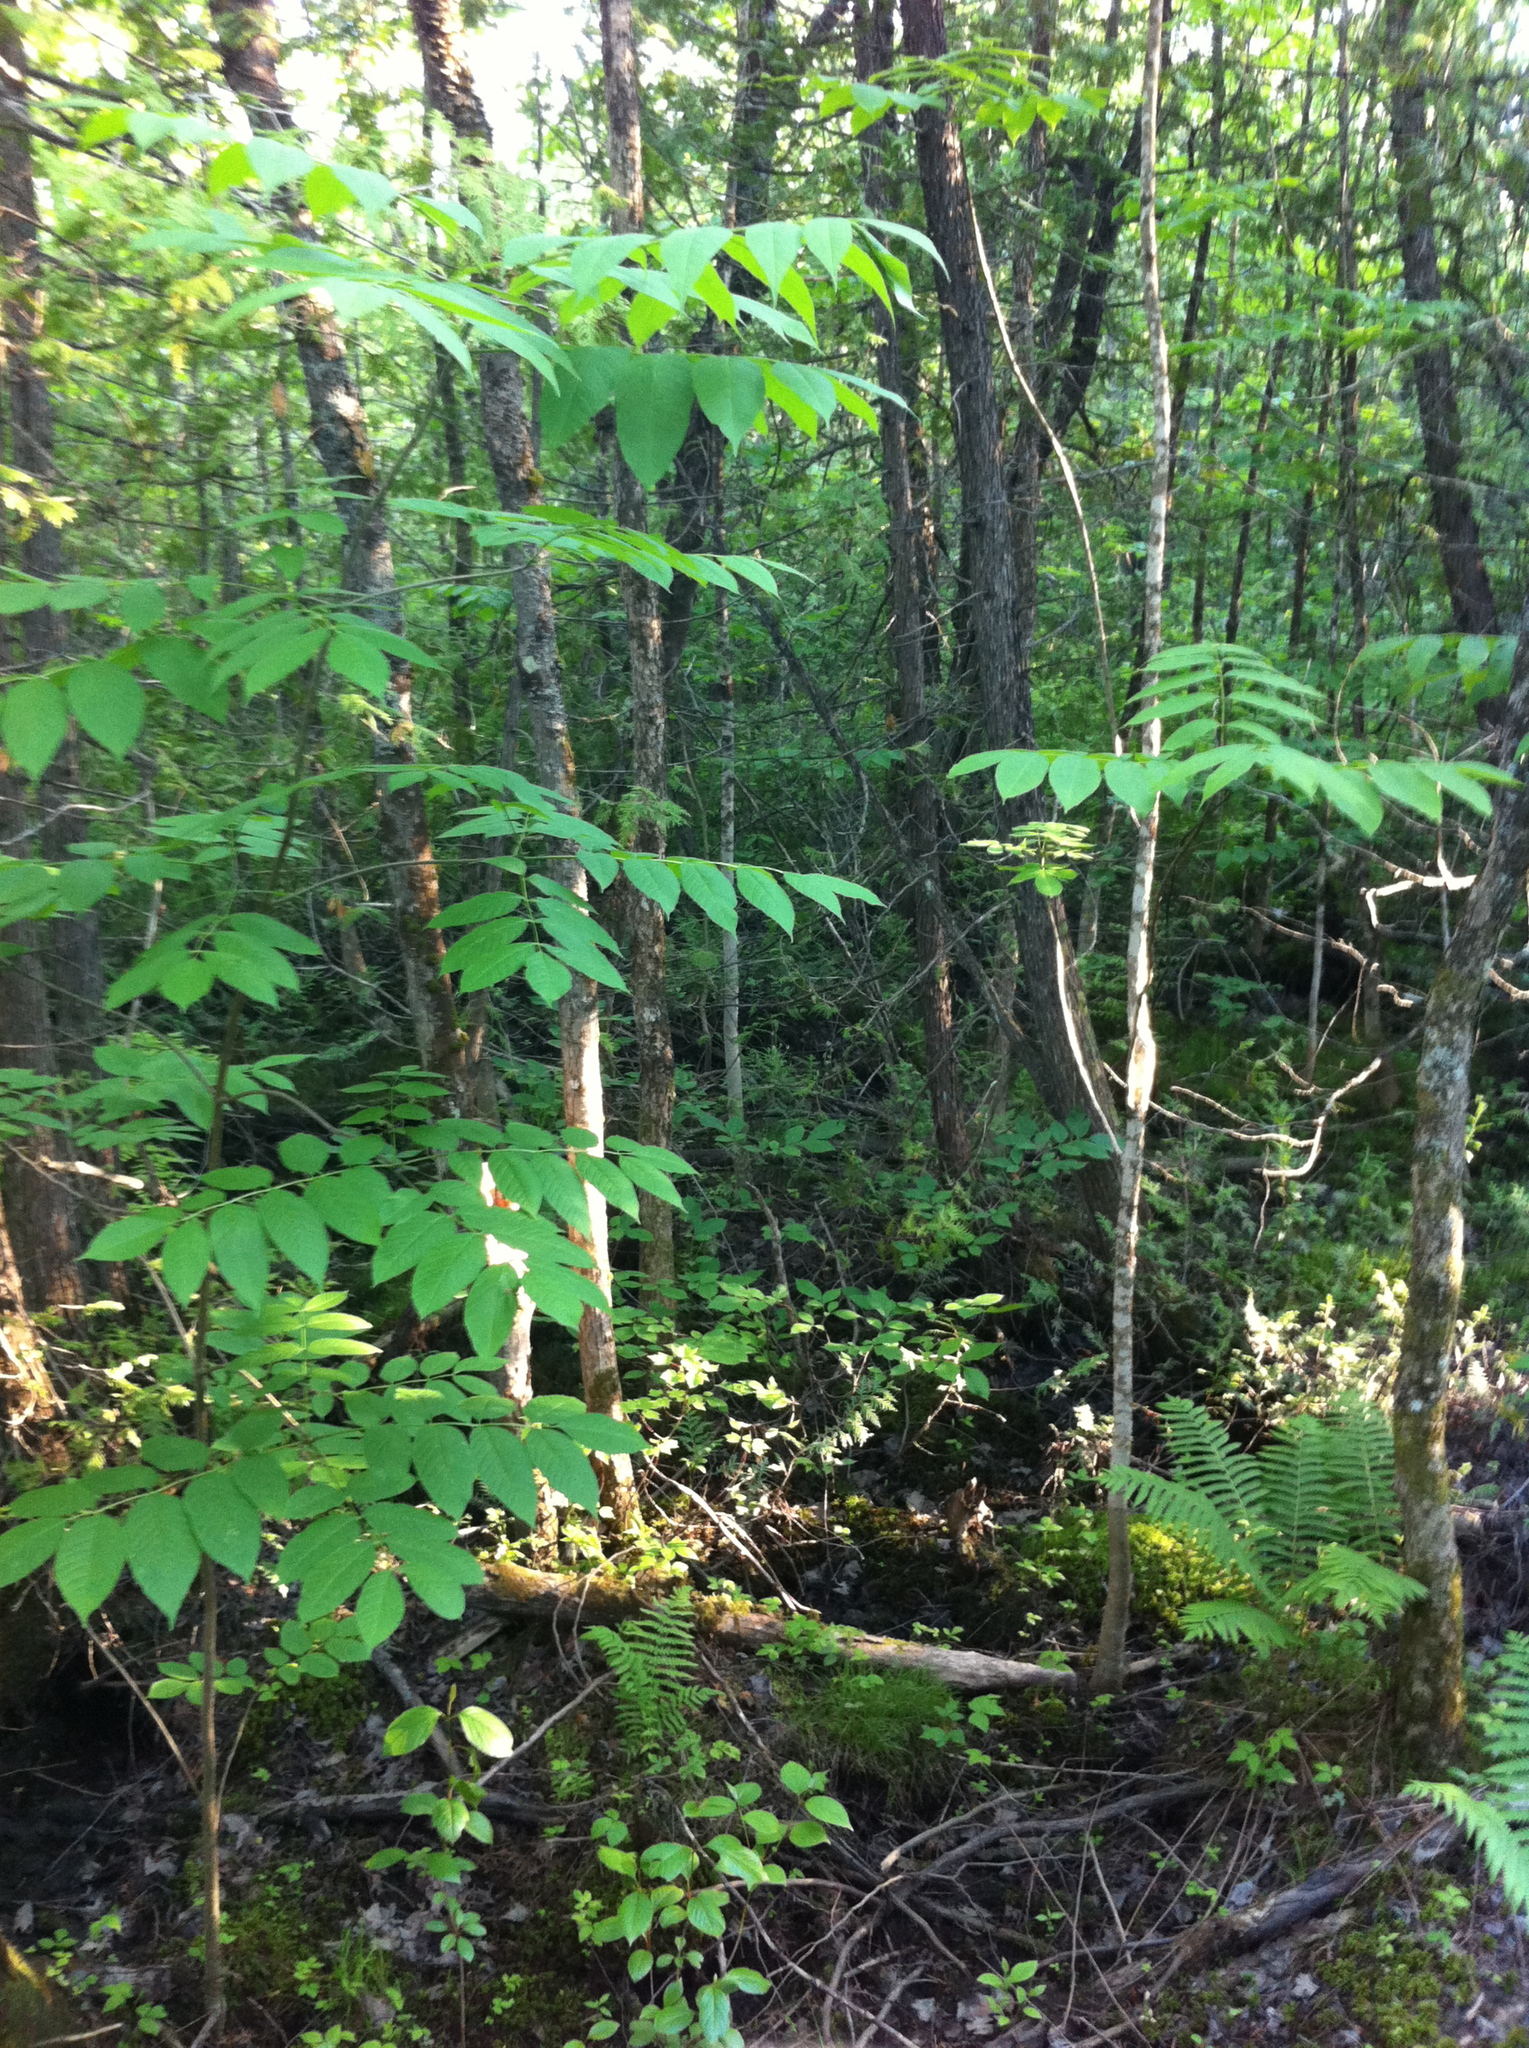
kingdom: Plantae
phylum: Tracheophyta
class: Magnoliopsida
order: Lamiales
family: Oleaceae
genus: Fraxinus
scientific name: Fraxinus nigra
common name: Black ash
